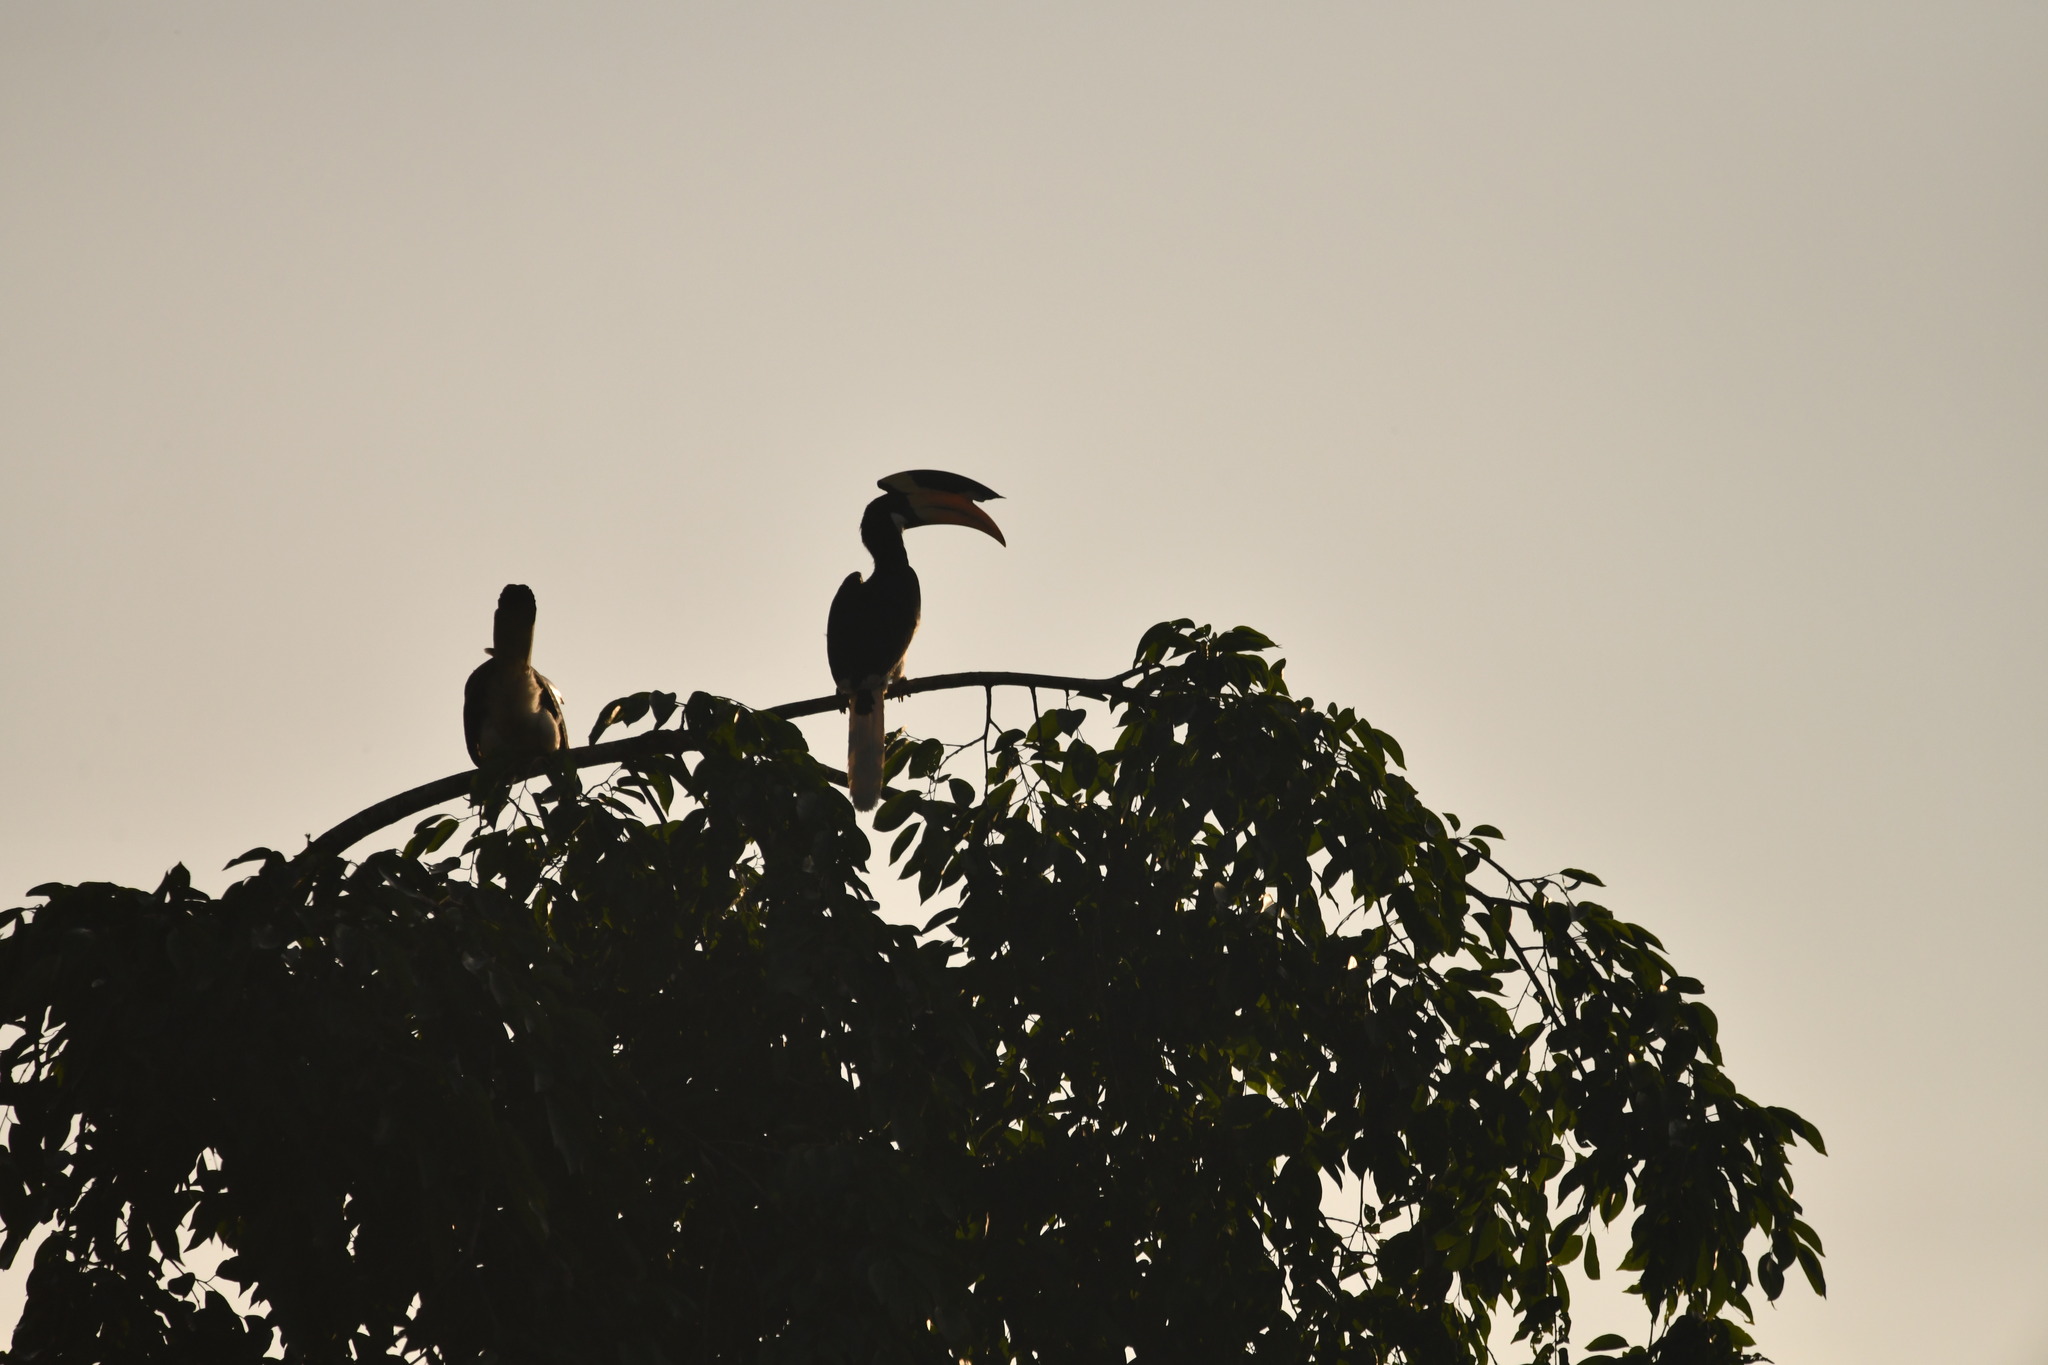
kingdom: Animalia
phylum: Chordata
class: Aves
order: Bucerotiformes
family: Bucerotidae
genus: Anthracoceros
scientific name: Anthracoceros coronatus
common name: Malabar pied hornbill
